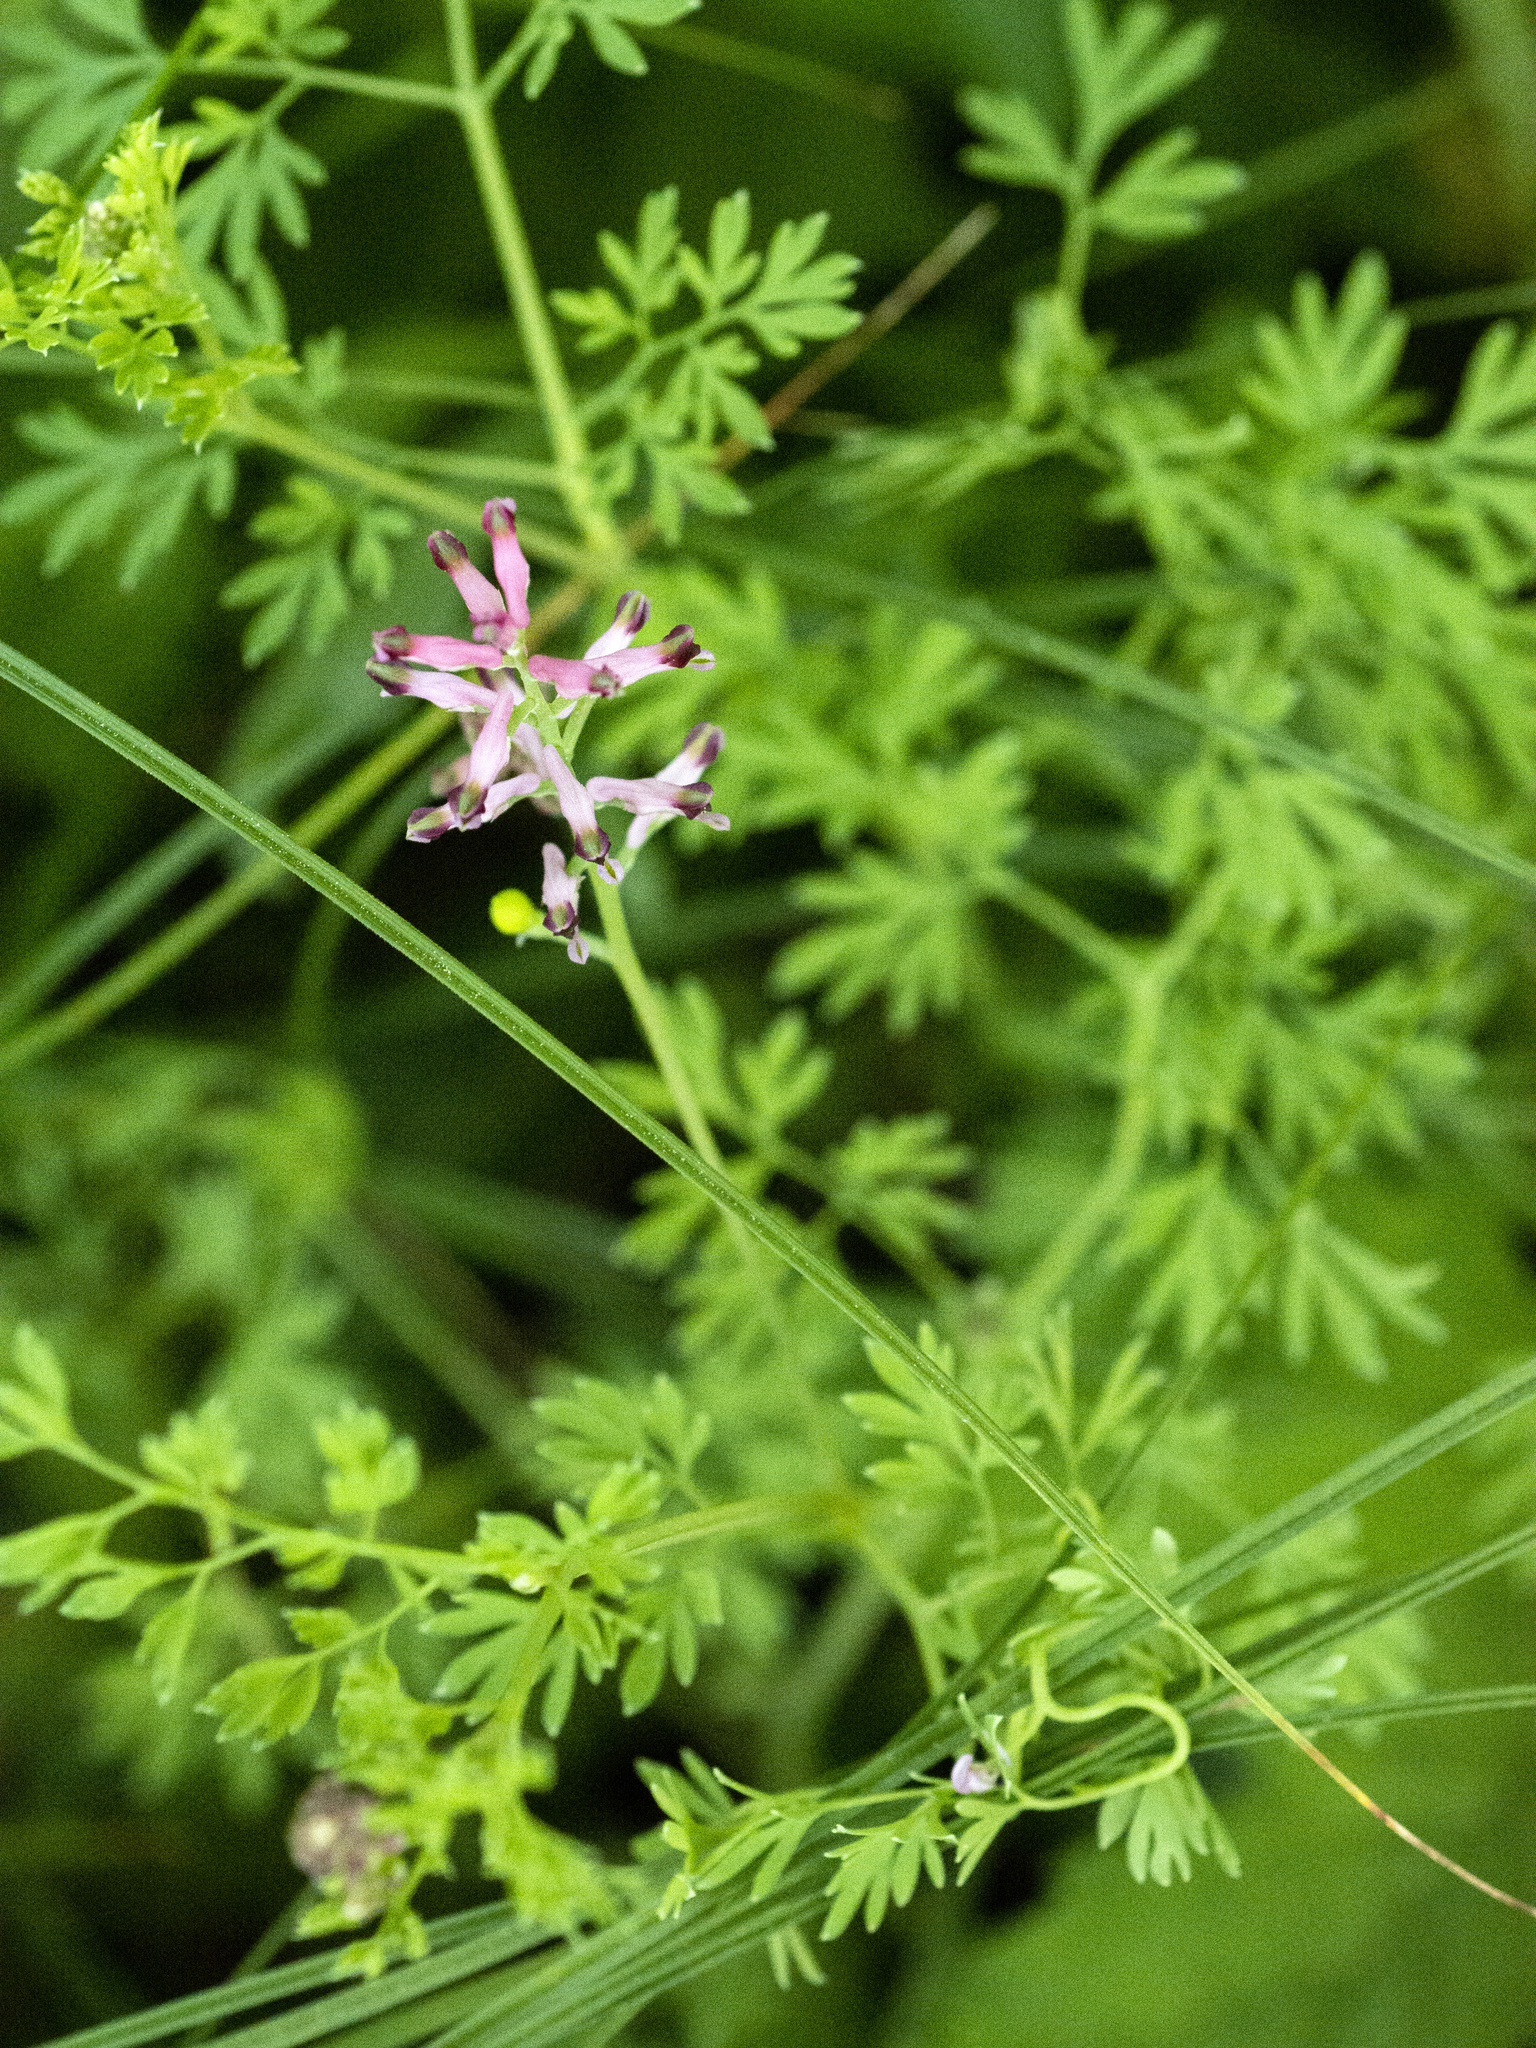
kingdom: Plantae
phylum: Tracheophyta
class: Magnoliopsida
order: Ranunculales
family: Papaveraceae
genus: Fumaria
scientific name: Fumaria schleicheri
